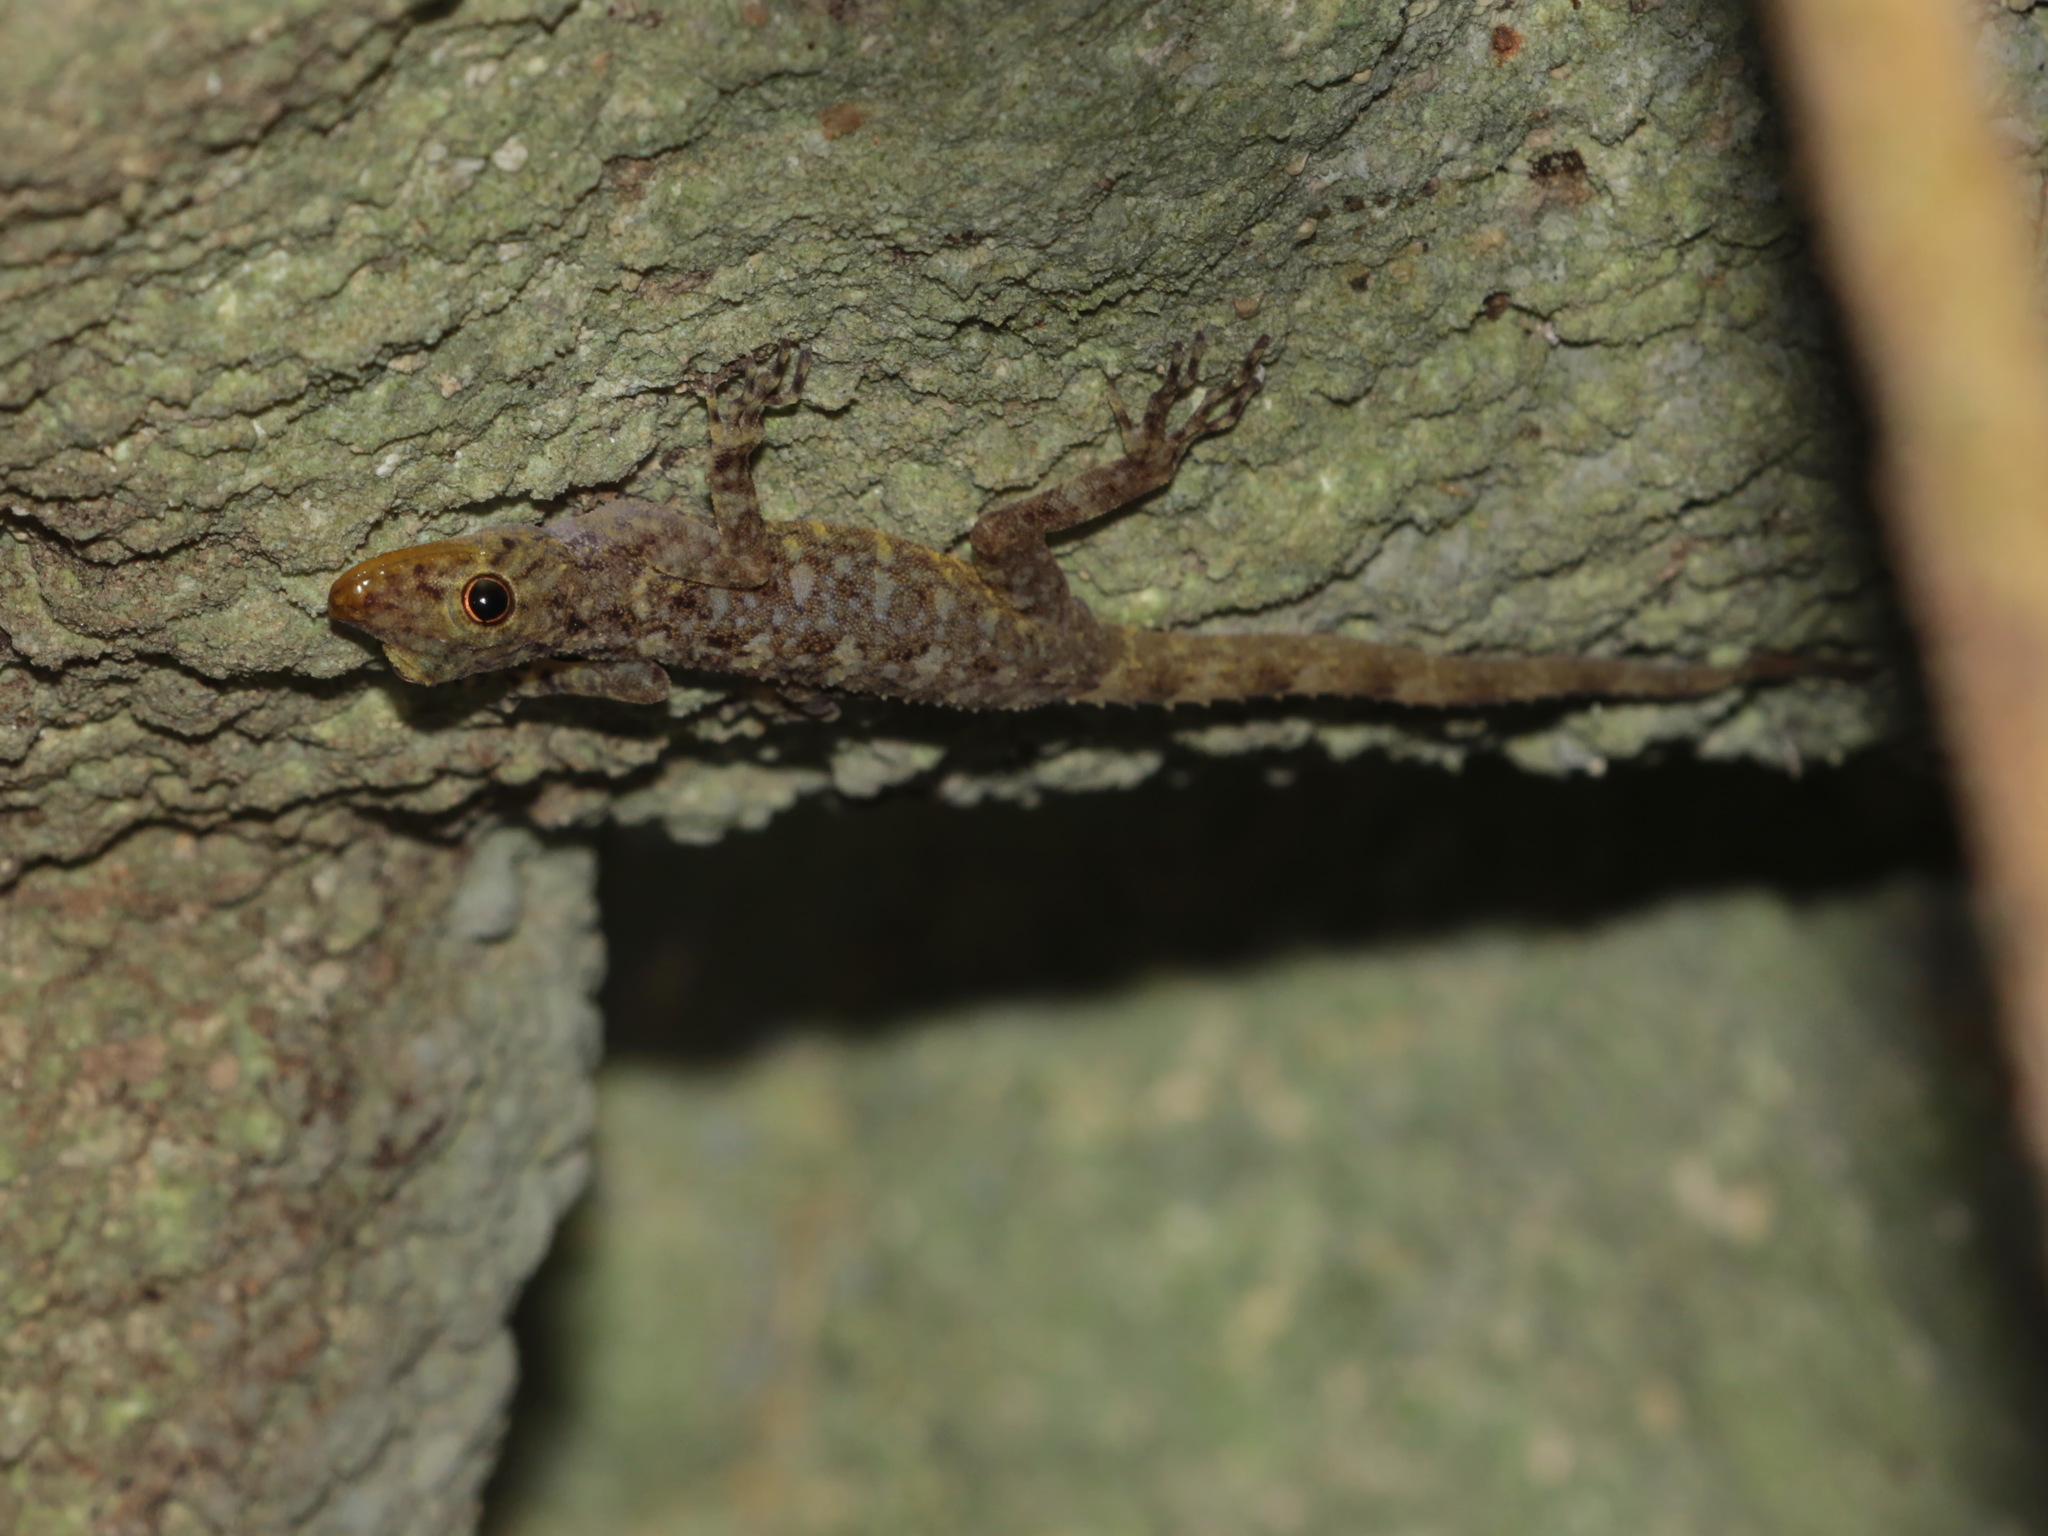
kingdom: Animalia
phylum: Chordata
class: Squamata
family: Gekkonidae
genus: Cnemaspis
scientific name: Cnemaspis phangngaensis
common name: Phangnga rock gecko
